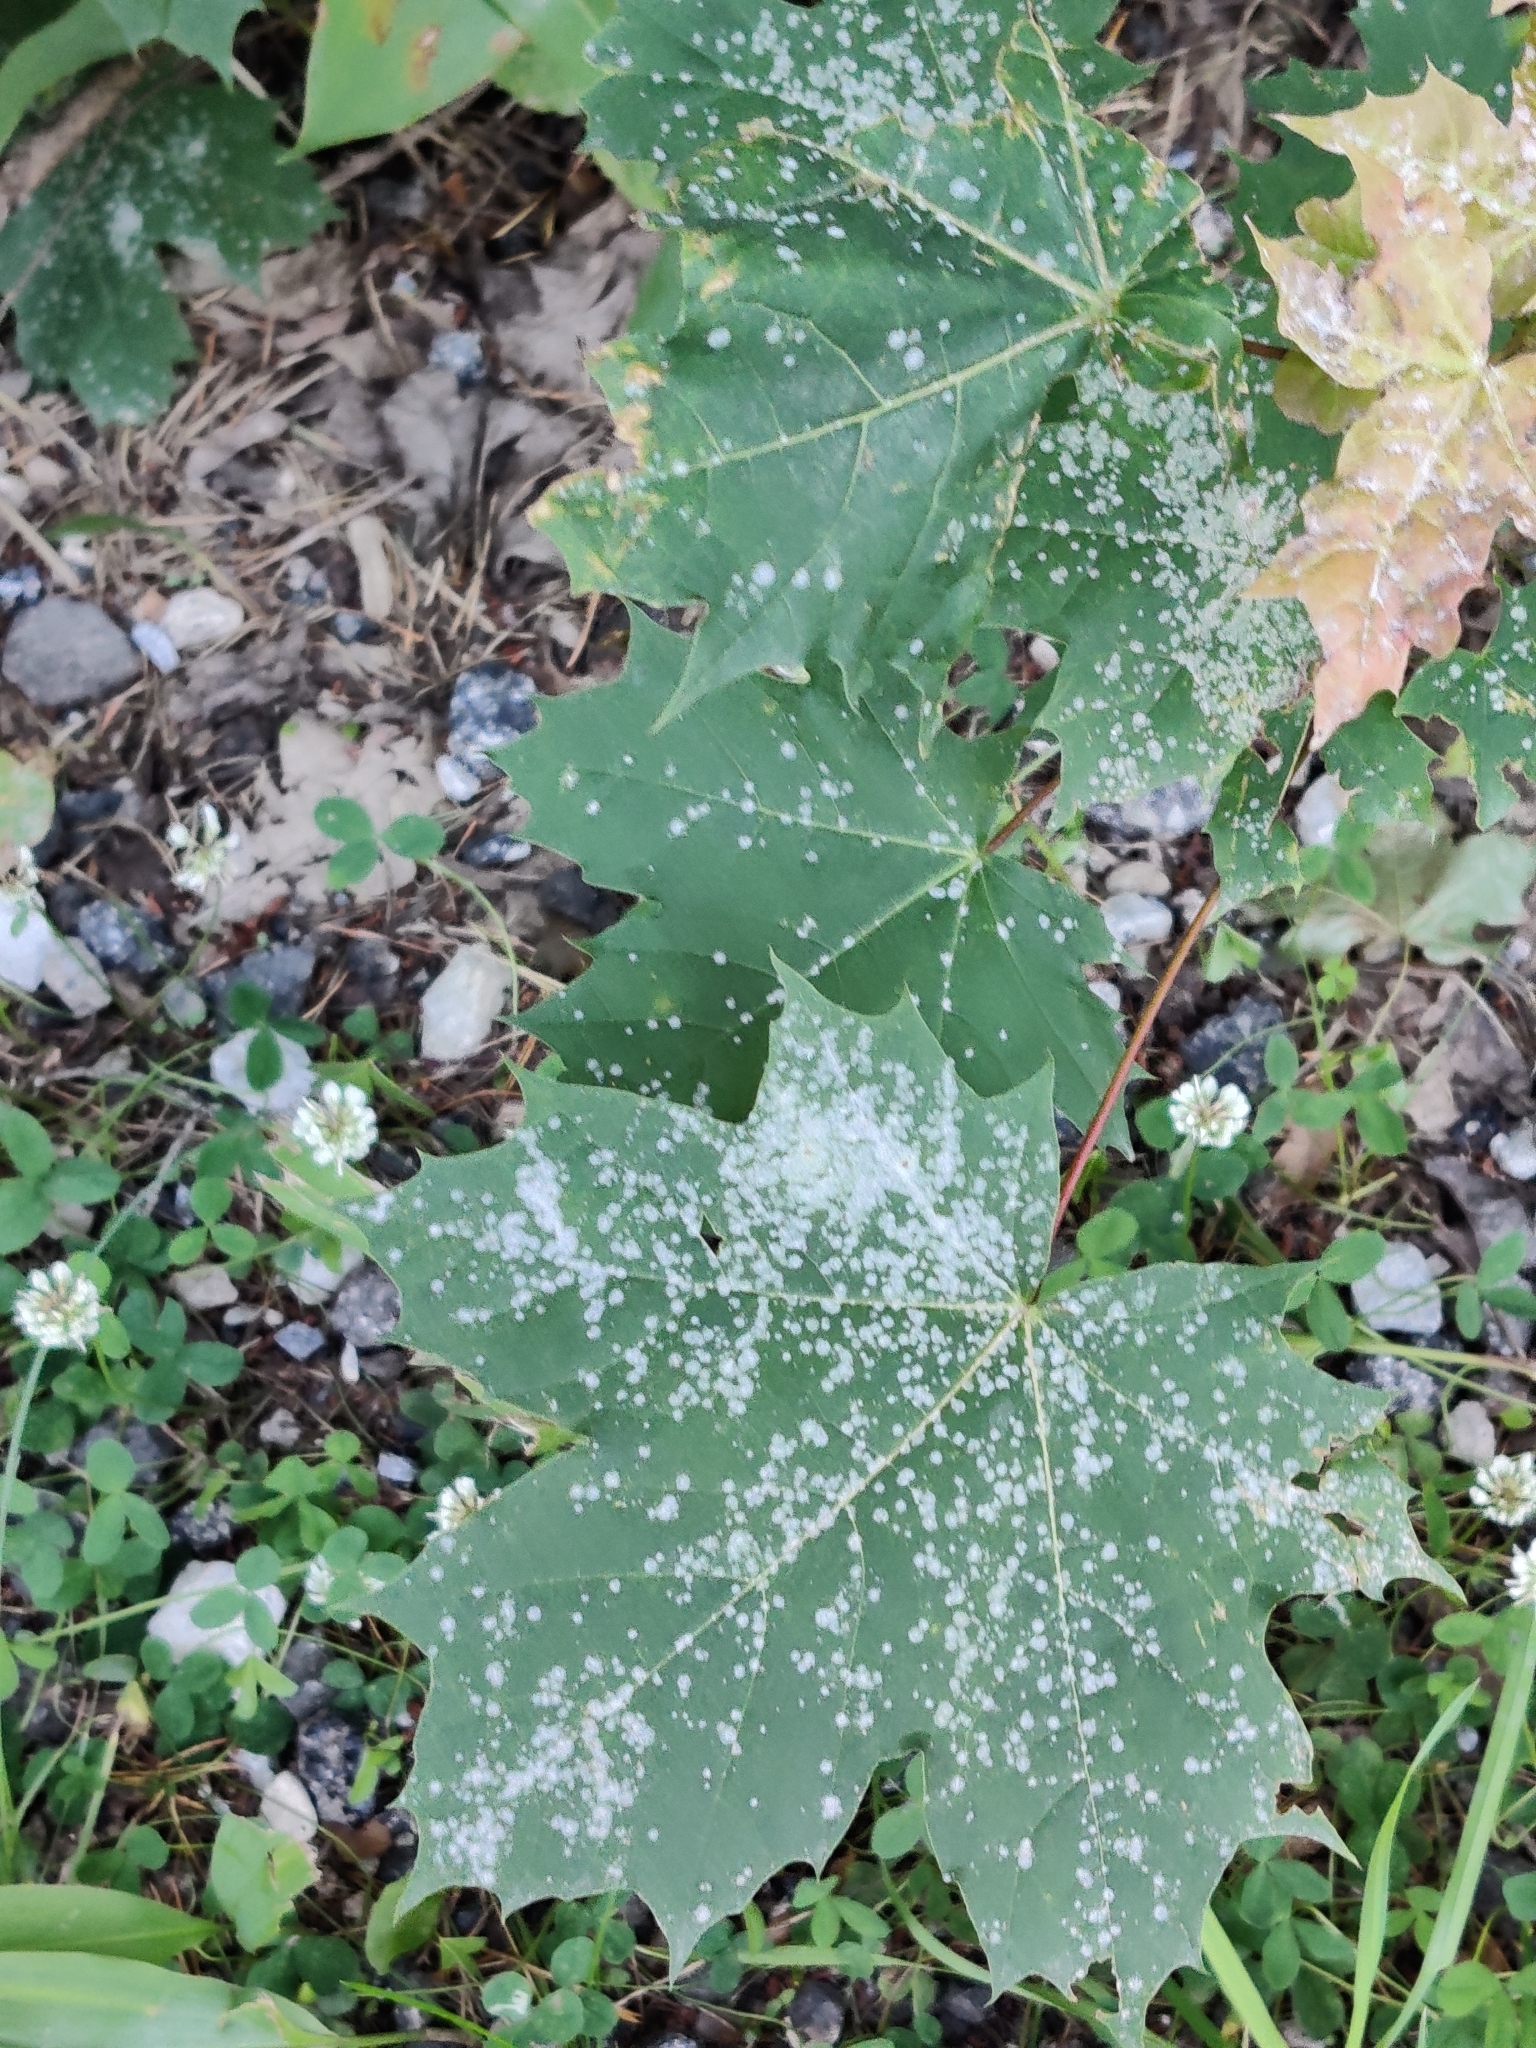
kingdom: Plantae
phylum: Tracheophyta
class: Magnoliopsida
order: Sapindales
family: Sapindaceae
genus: Acer
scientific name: Acer platanoides
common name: Norway maple
